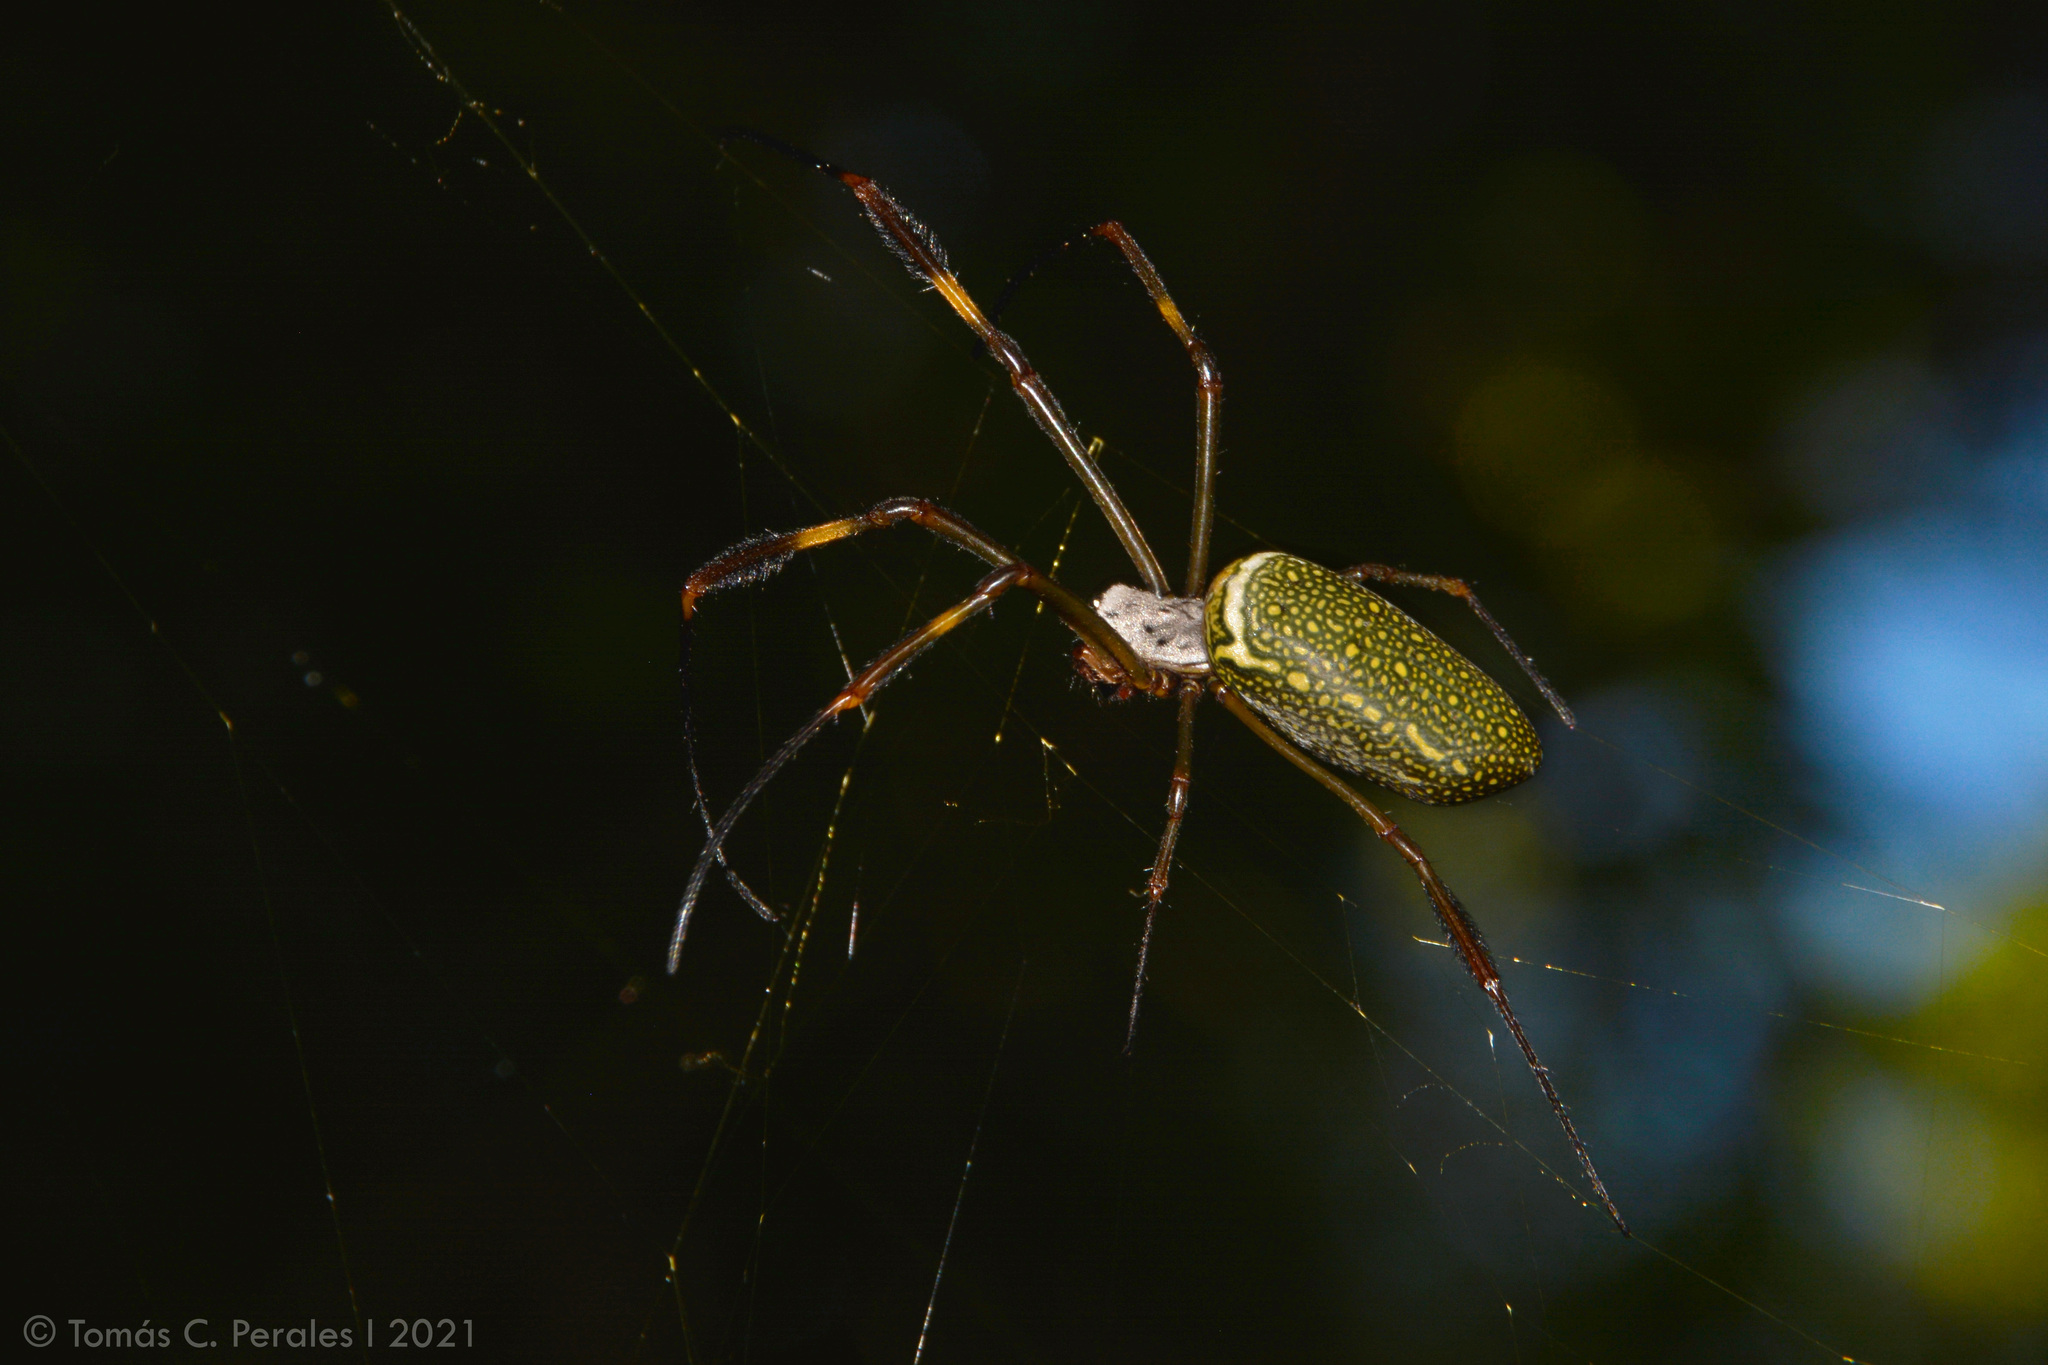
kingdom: Animalia
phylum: Arthropoda
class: Arachnida
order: Araneae
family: Araneidae
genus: Trichonephila
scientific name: Trichonephila clavipes
